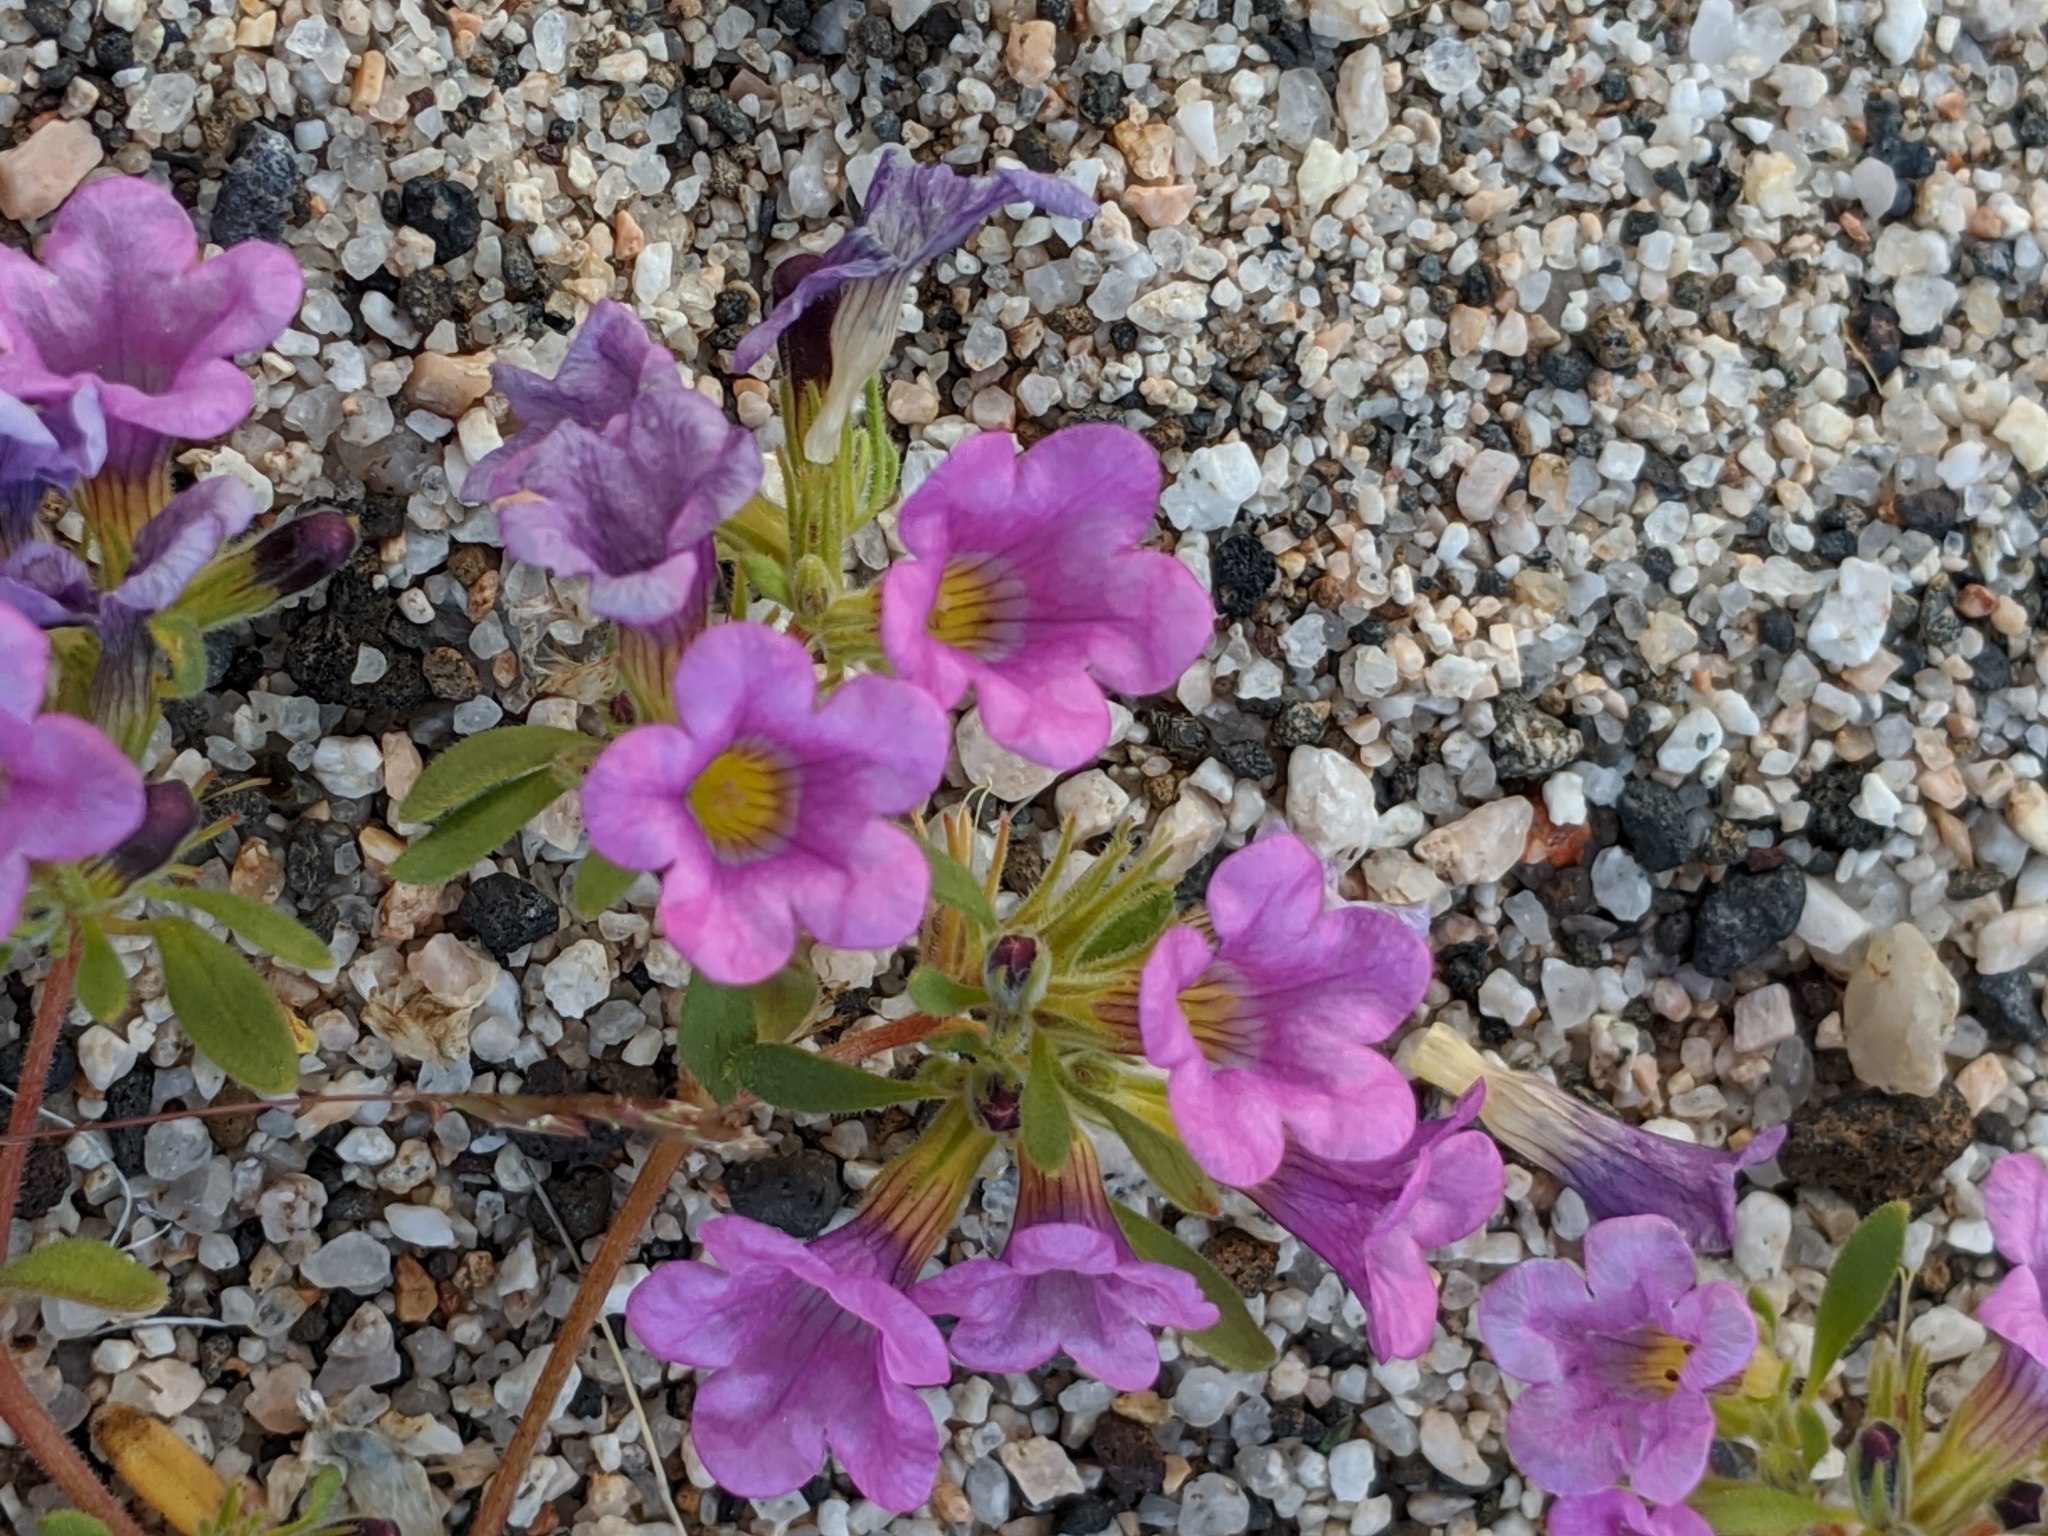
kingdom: Plantae
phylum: Tracheophyta
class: Magnoliopsida
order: Boraginales
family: Namaceae
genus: Nama
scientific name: Nama demissa
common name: Leafy nama
